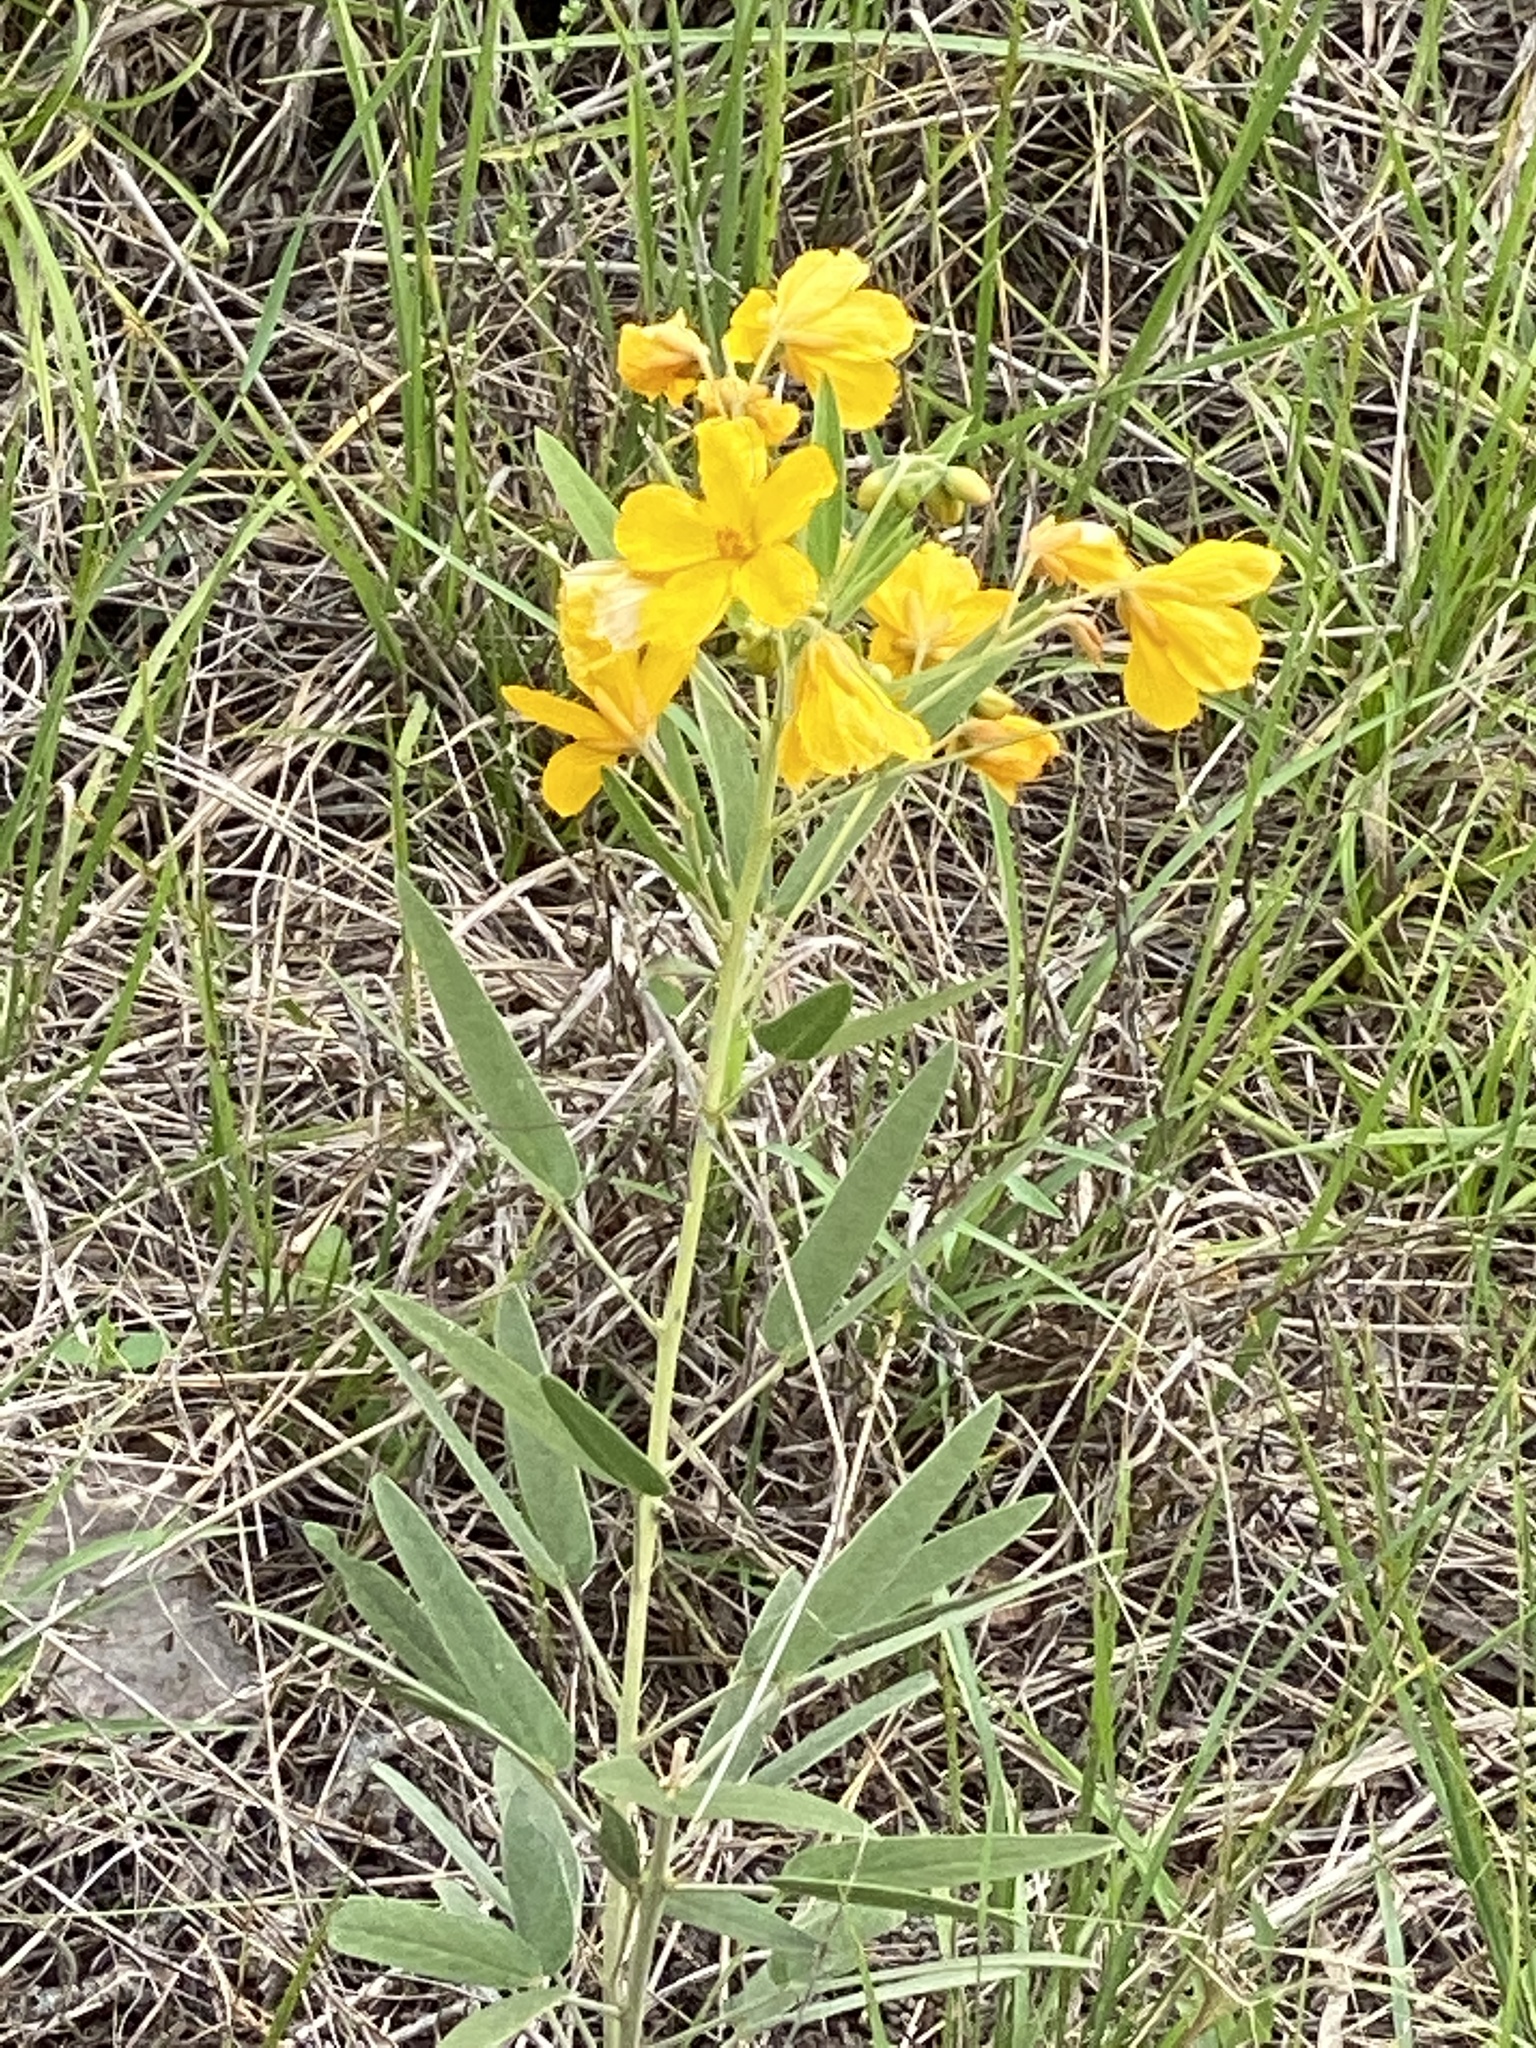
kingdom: Plantae
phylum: Tracheophyta
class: Magnoliopsida
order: Fabales
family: Fabaceae
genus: Senna
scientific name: Senna roemeriana
